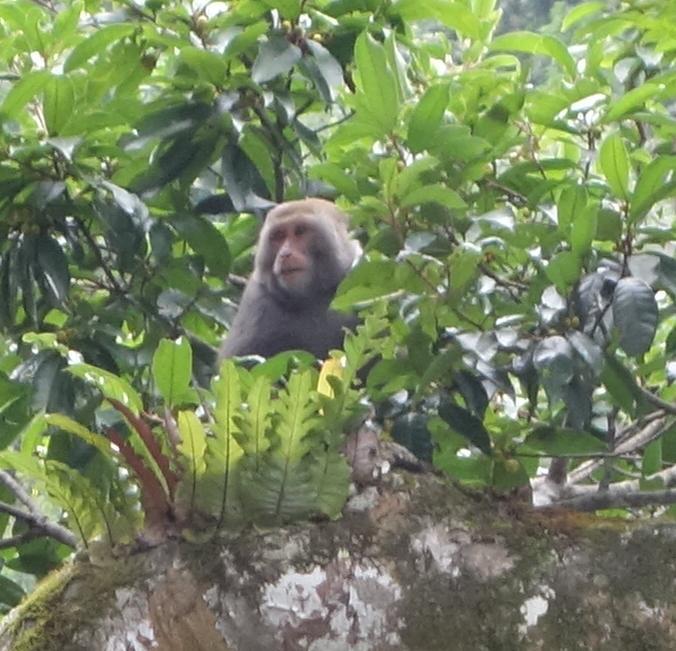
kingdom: Animalia
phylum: Chordata
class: Mammalia
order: Primates
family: Cercopithecidae
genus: Macaca
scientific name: Macaca cyclopis
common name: Formosan rock macaque
